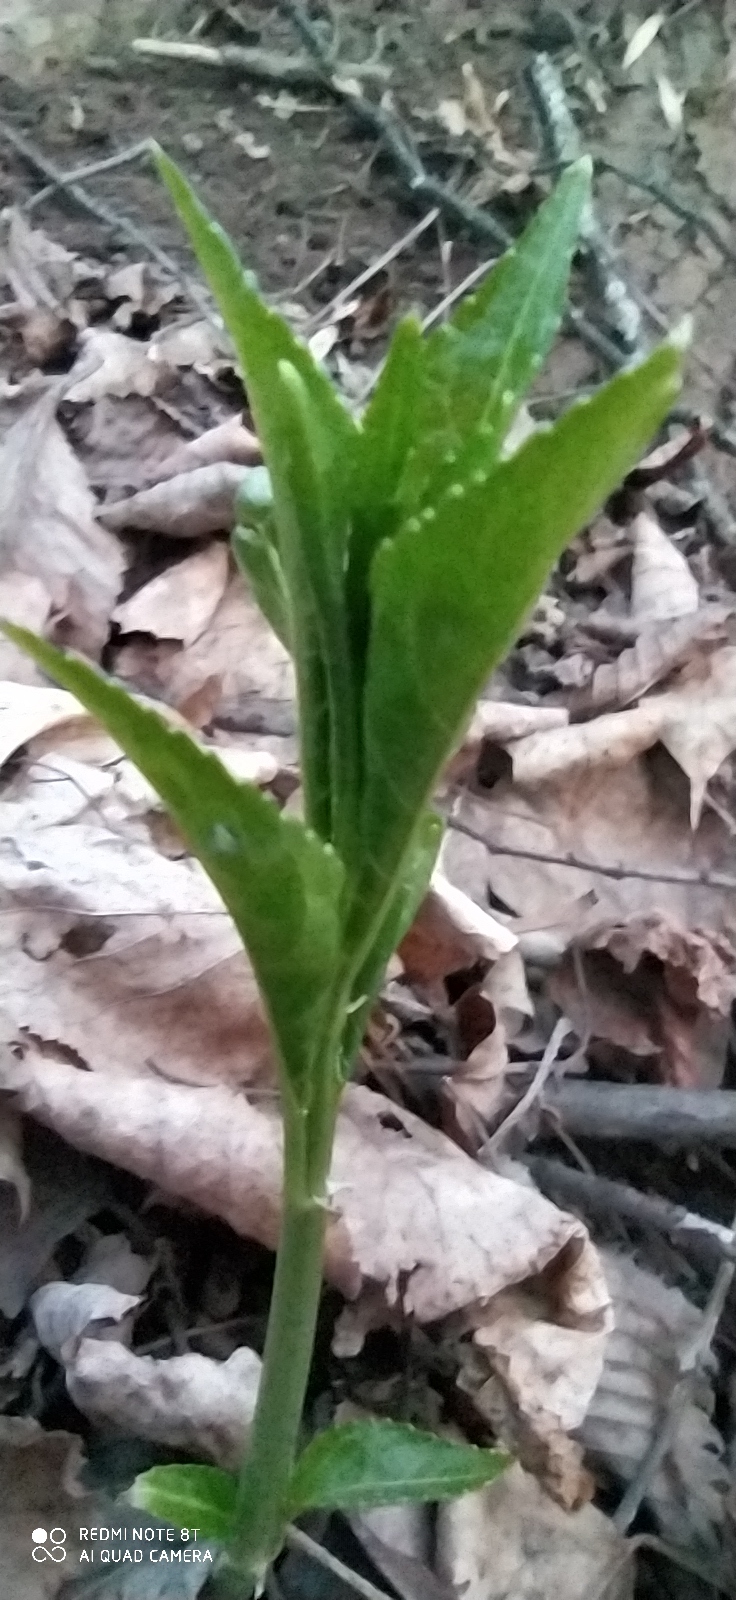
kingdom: Plantae
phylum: Tracheophyta
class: Magnoliopsida
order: Malpighiales
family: Euphorbiaceae
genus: Mercurialis
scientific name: Mercurialis perennis
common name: Dog mercury
